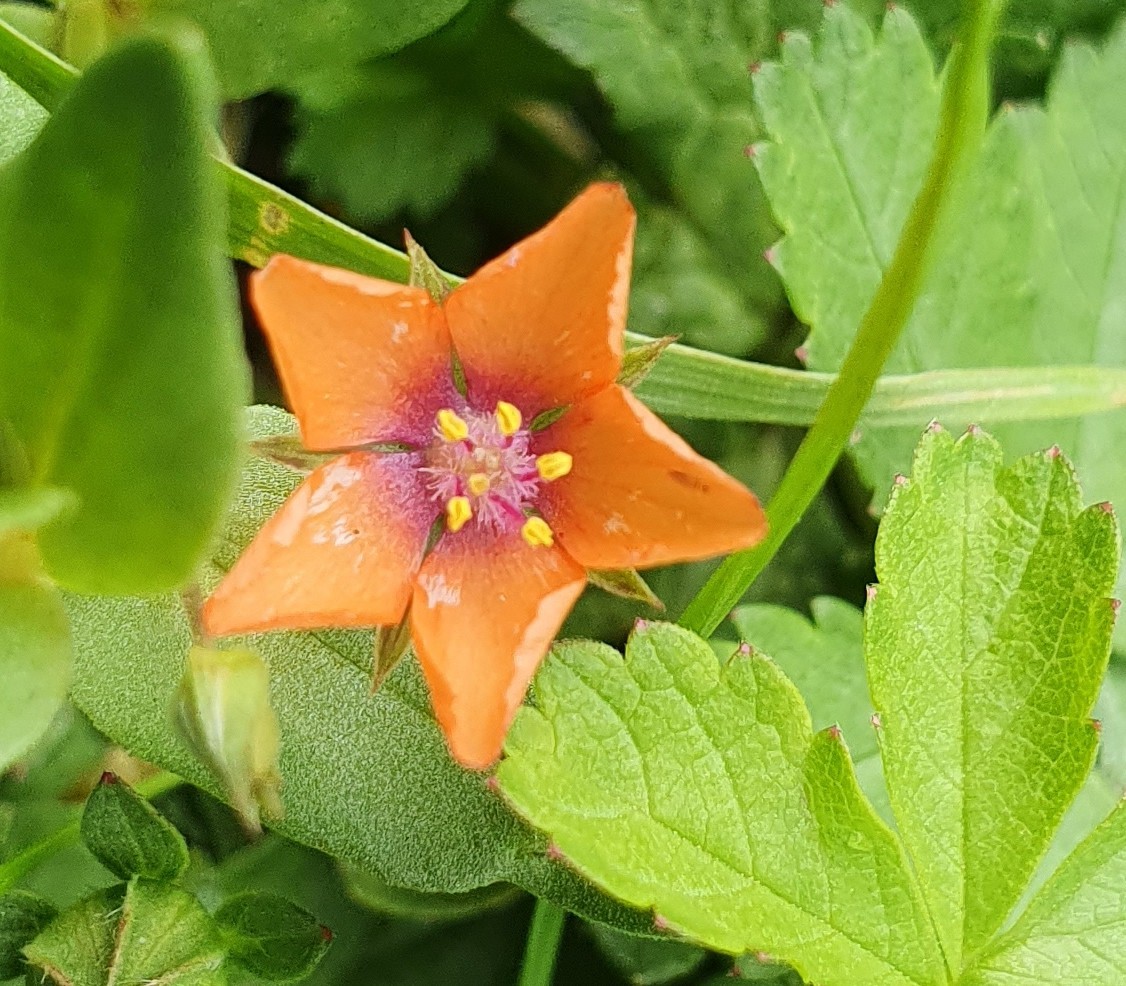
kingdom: Plantae
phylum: Tracheophyta
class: Magnoliopsida
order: Ericales
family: Primulaceae
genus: Lysimachia
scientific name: Lysimachia arvensis
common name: Scarlet pimpernel
